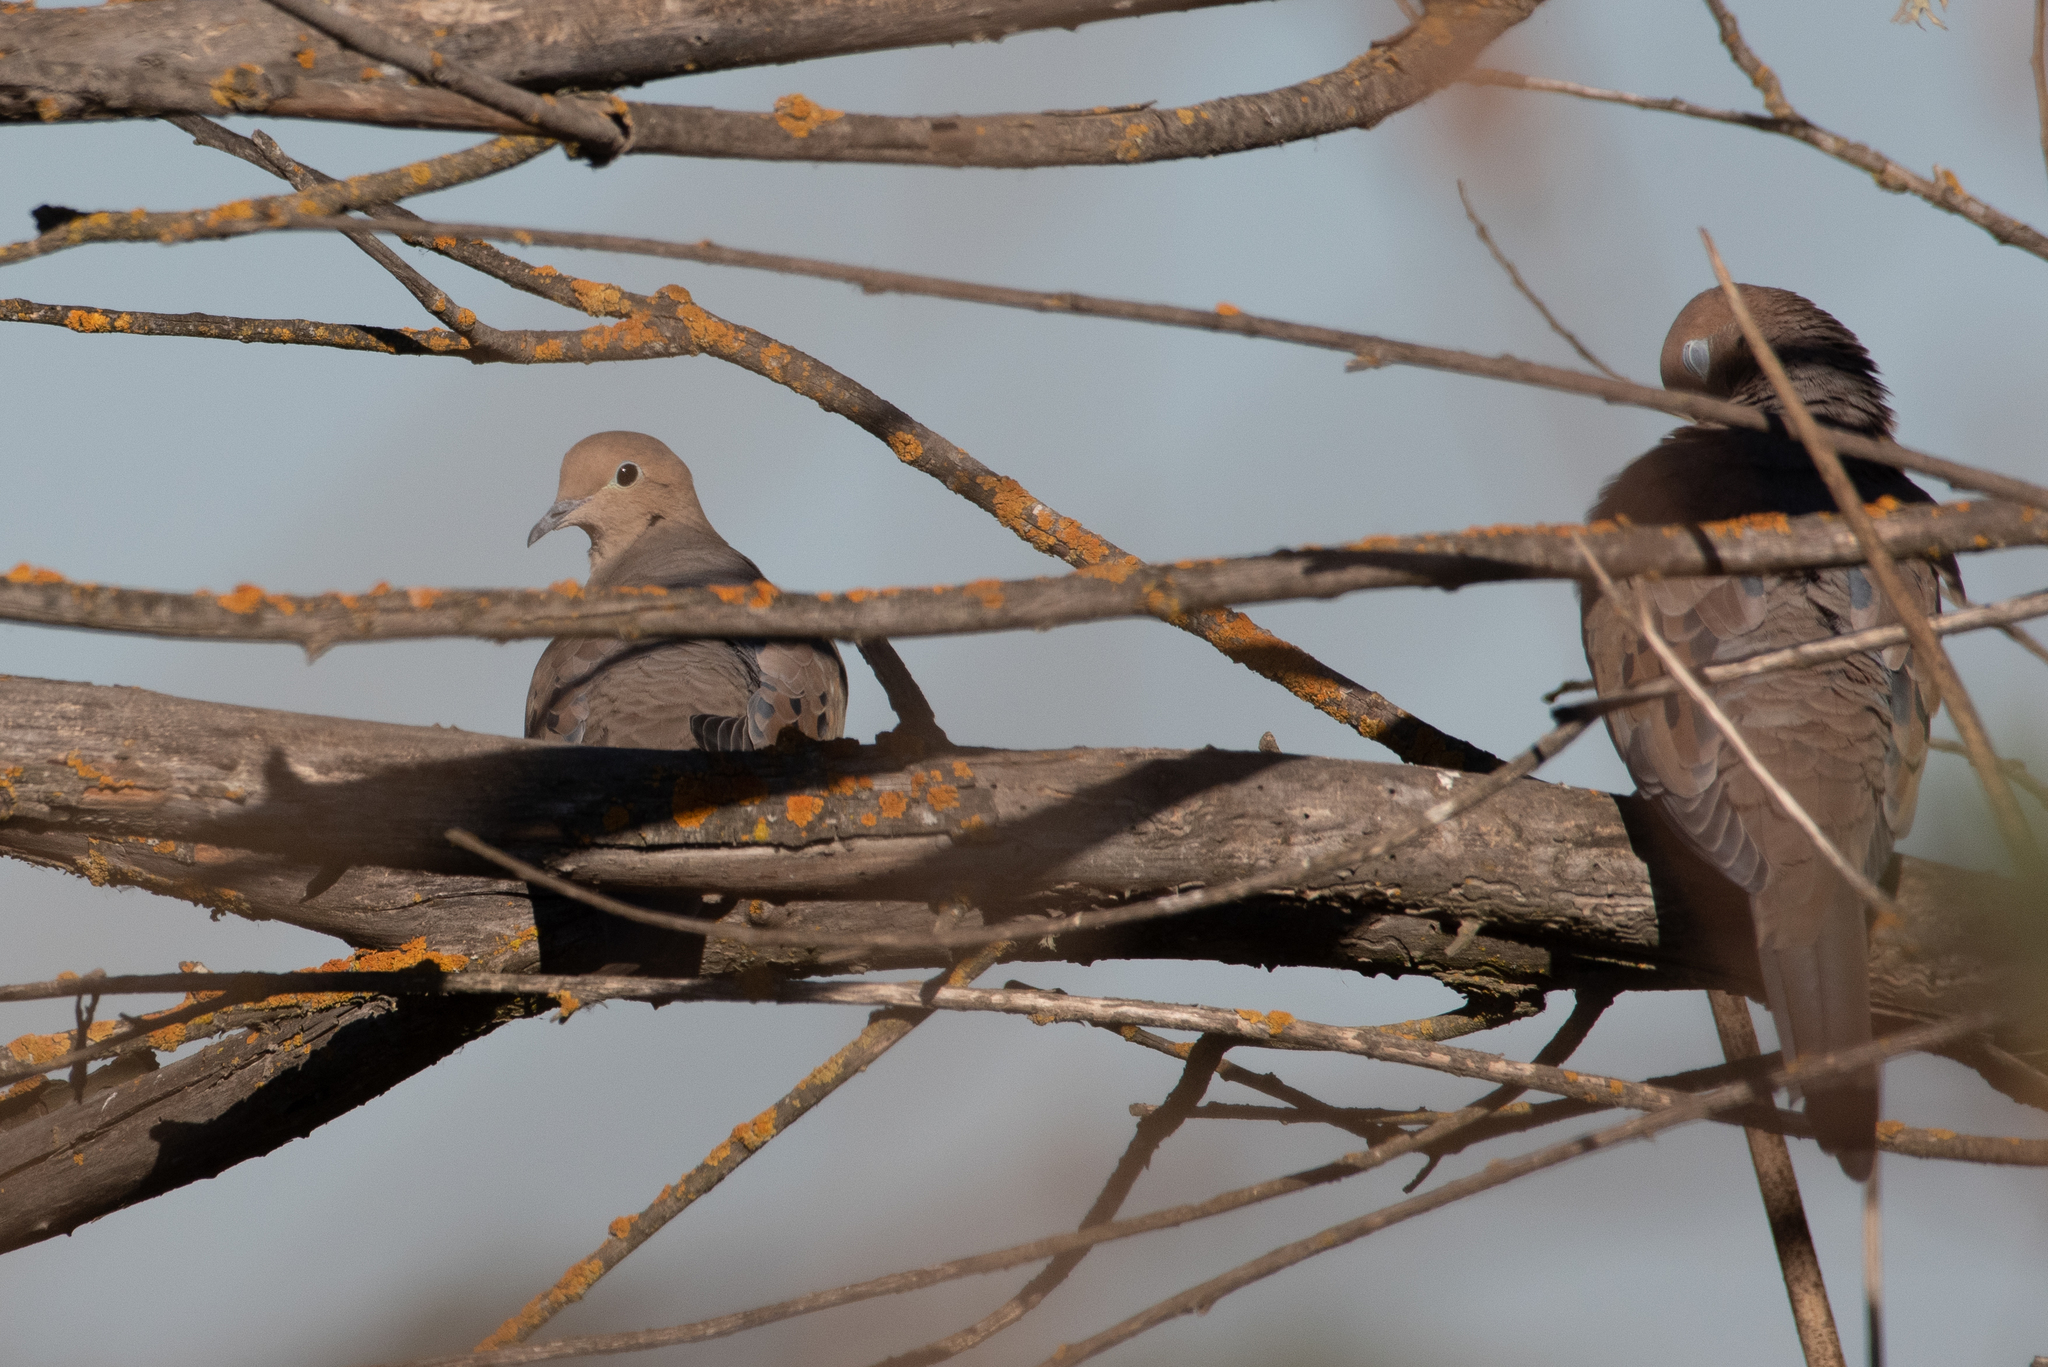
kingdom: Animalia
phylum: Chordata
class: Aves
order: Columbiformes
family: Columbidae
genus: Zenaida
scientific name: Zenaida macroura
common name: Mourning dove
